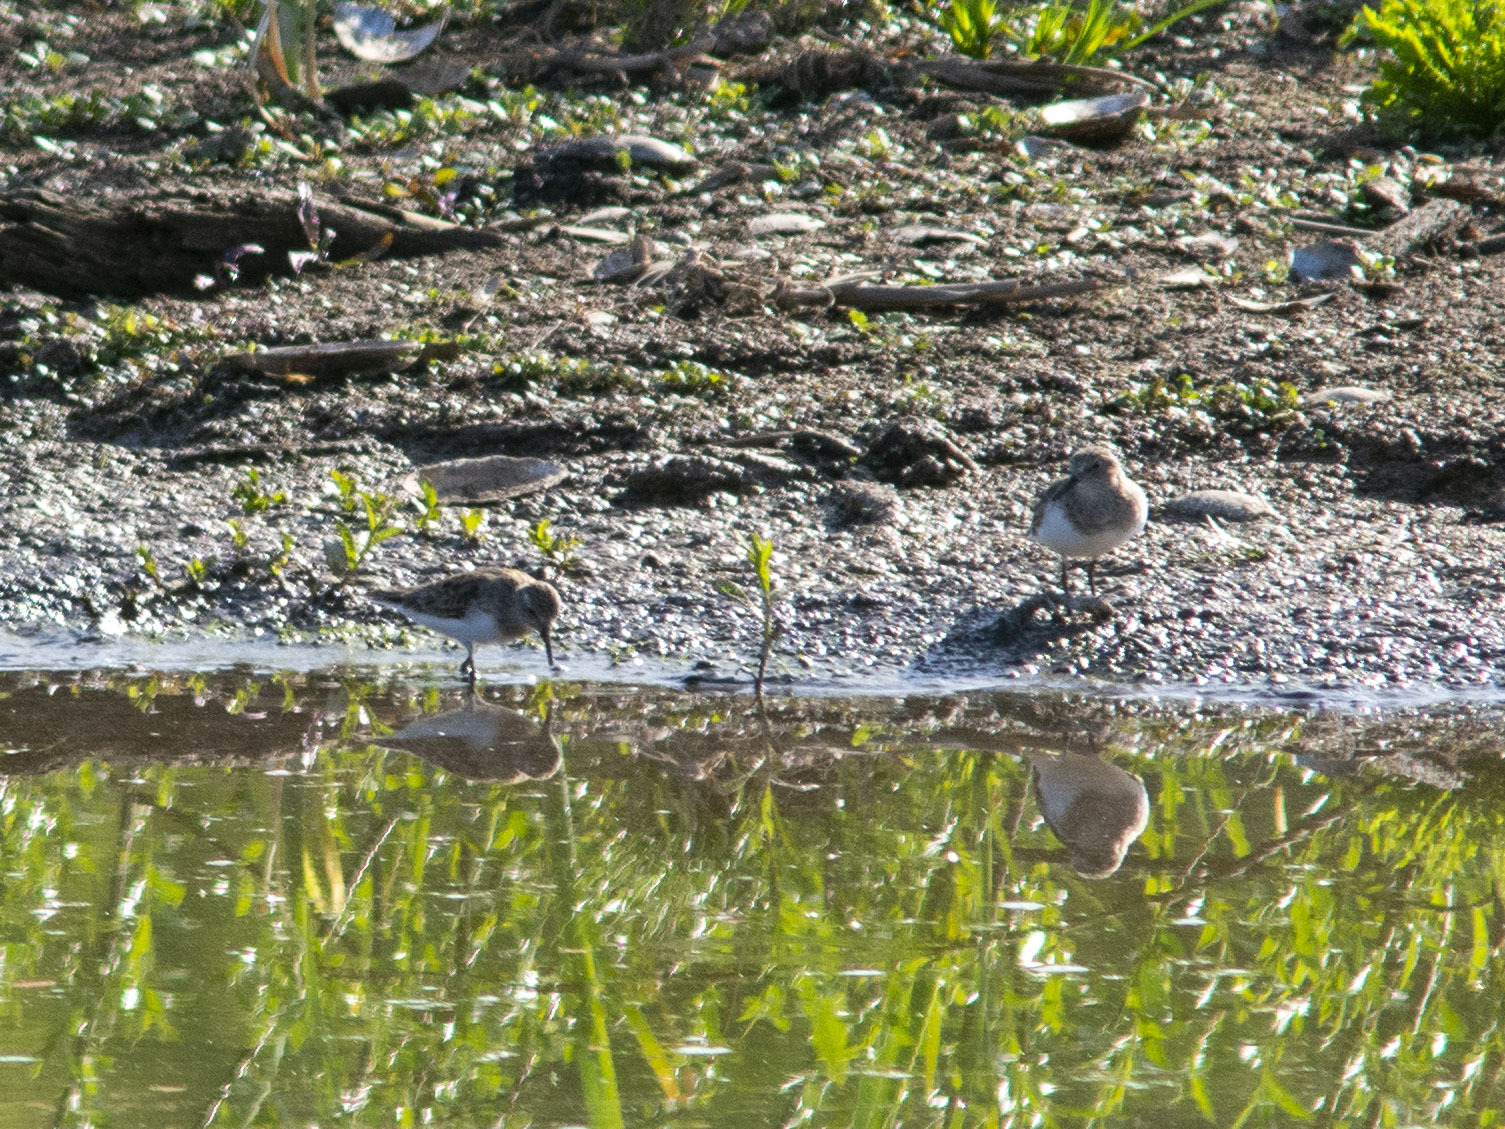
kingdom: Animalia
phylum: Chordata
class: Aves
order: Charadriiformes
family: Scolopacidae
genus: Calidris
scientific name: Calidris temminckii
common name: Temminck's stint
